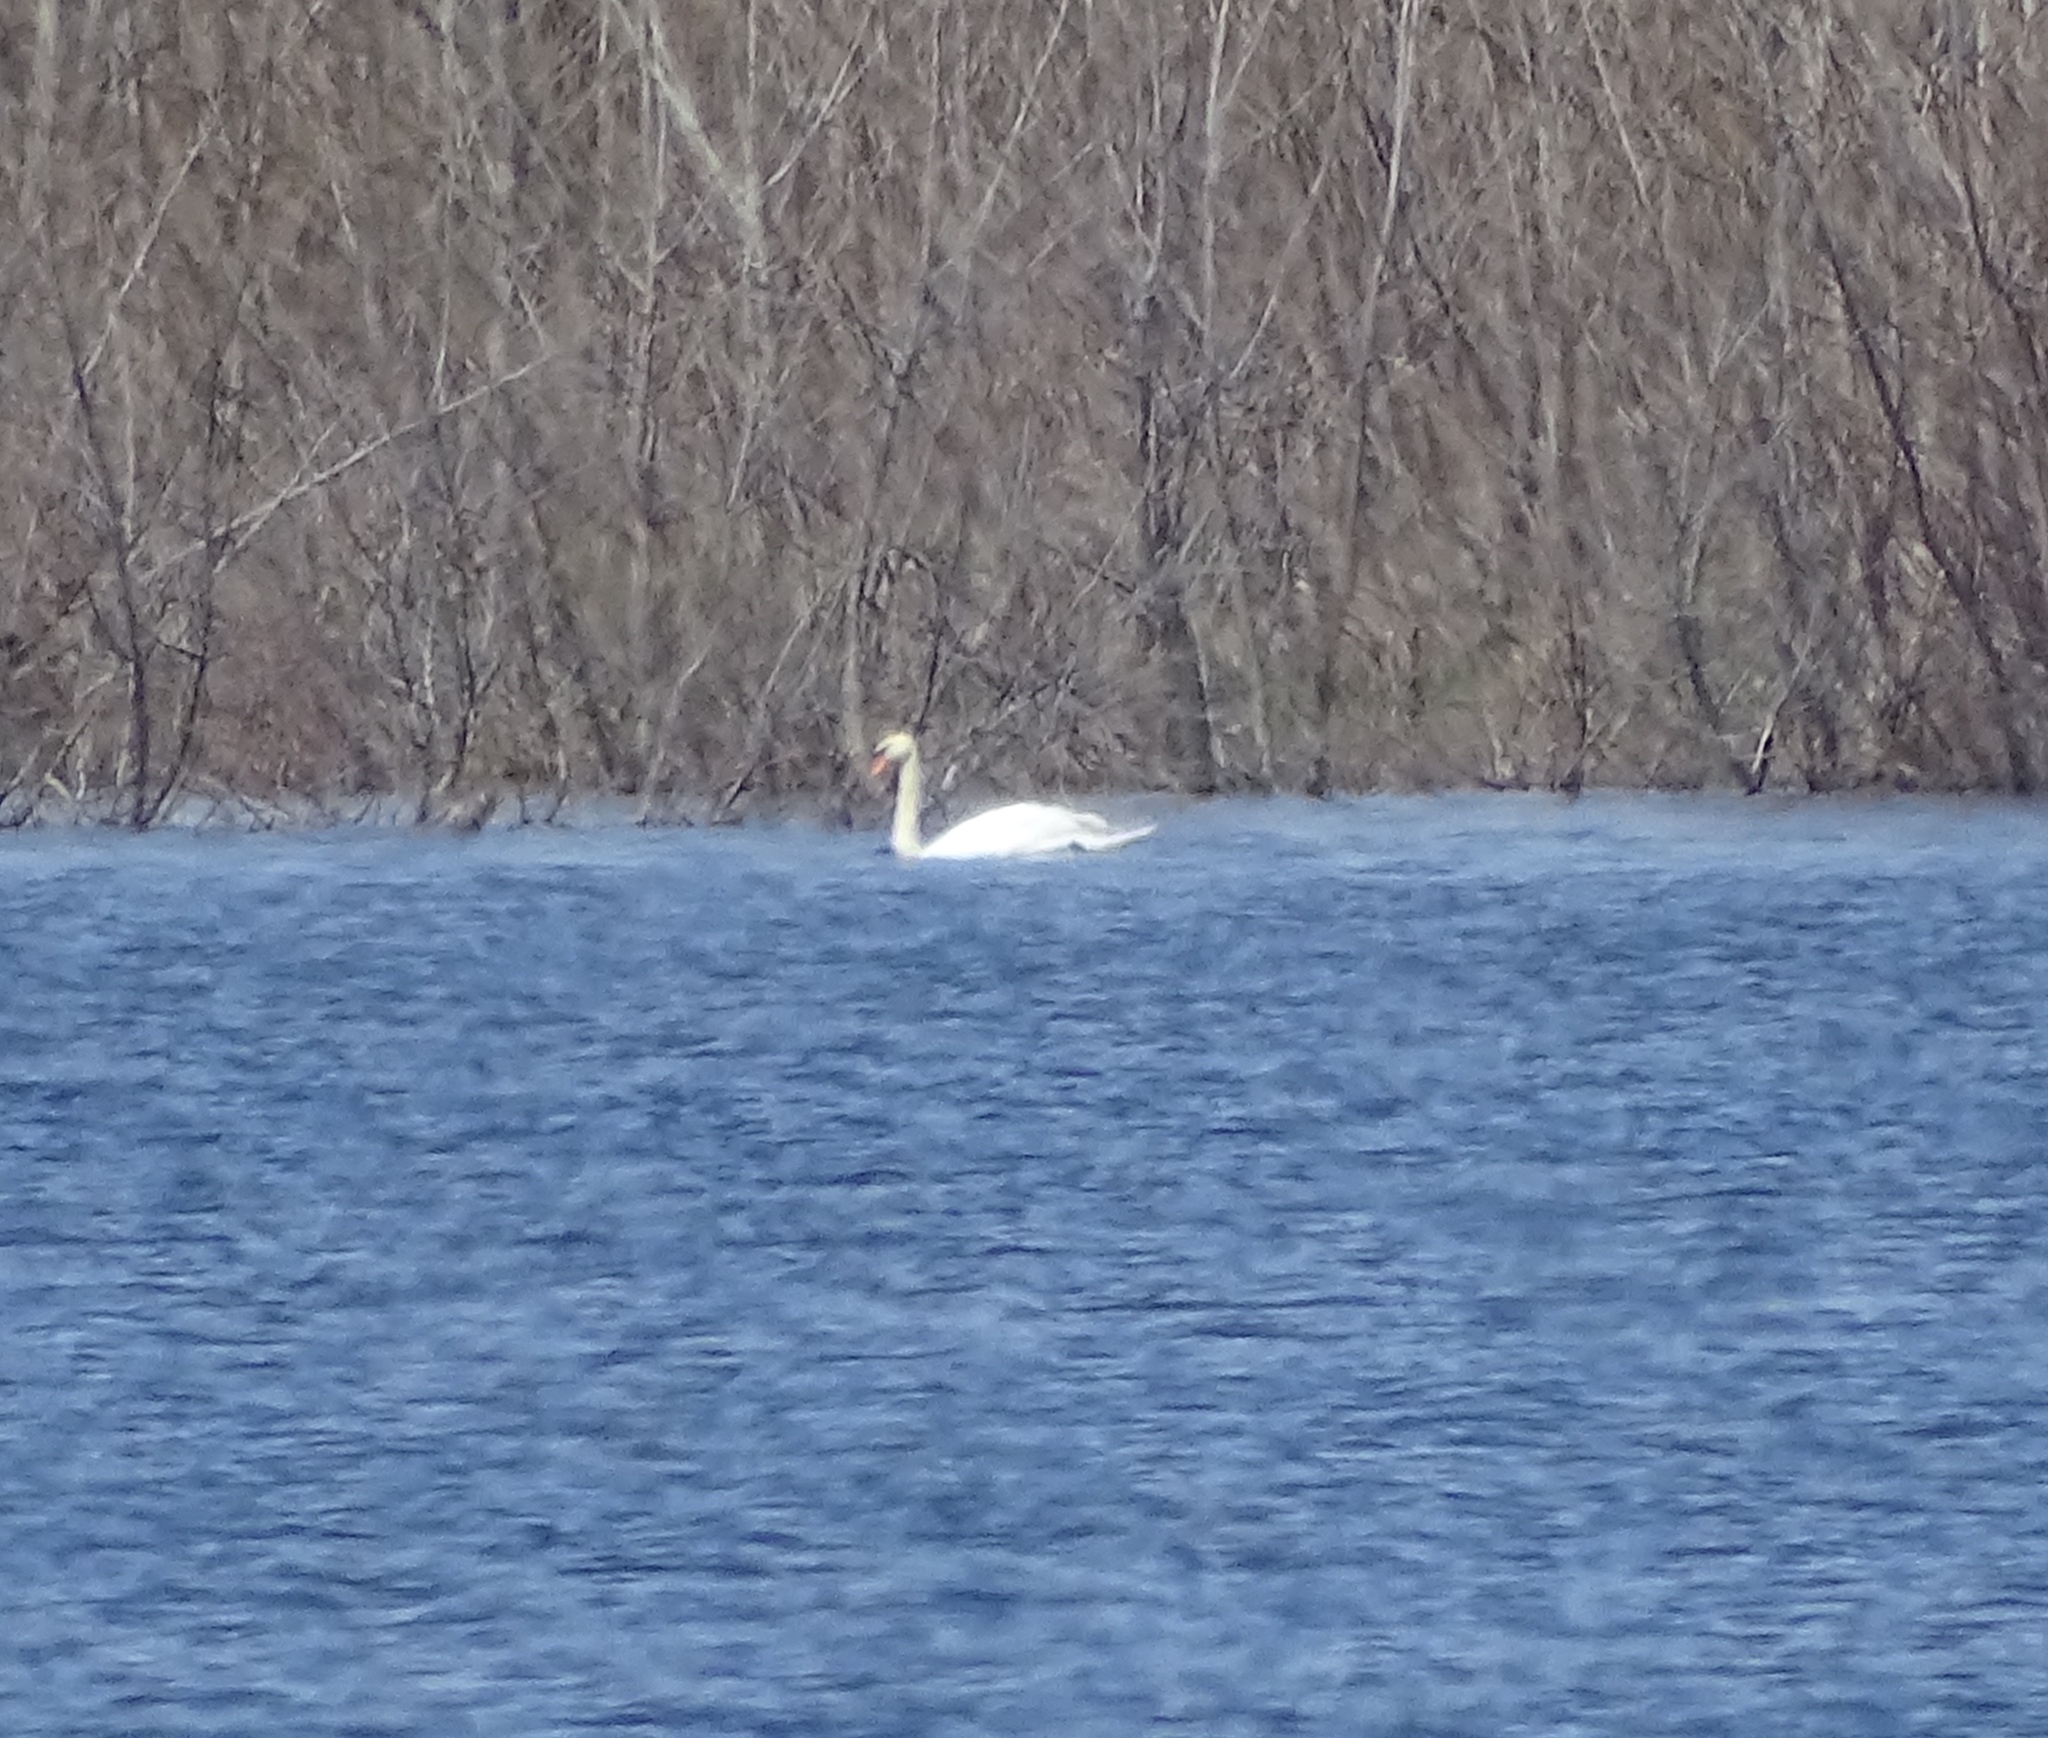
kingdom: Animalia
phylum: Chordata
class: Aves
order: Anseriformes
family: Anatidae
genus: Cygnus
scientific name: Cygnus olor
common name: Mute swan
